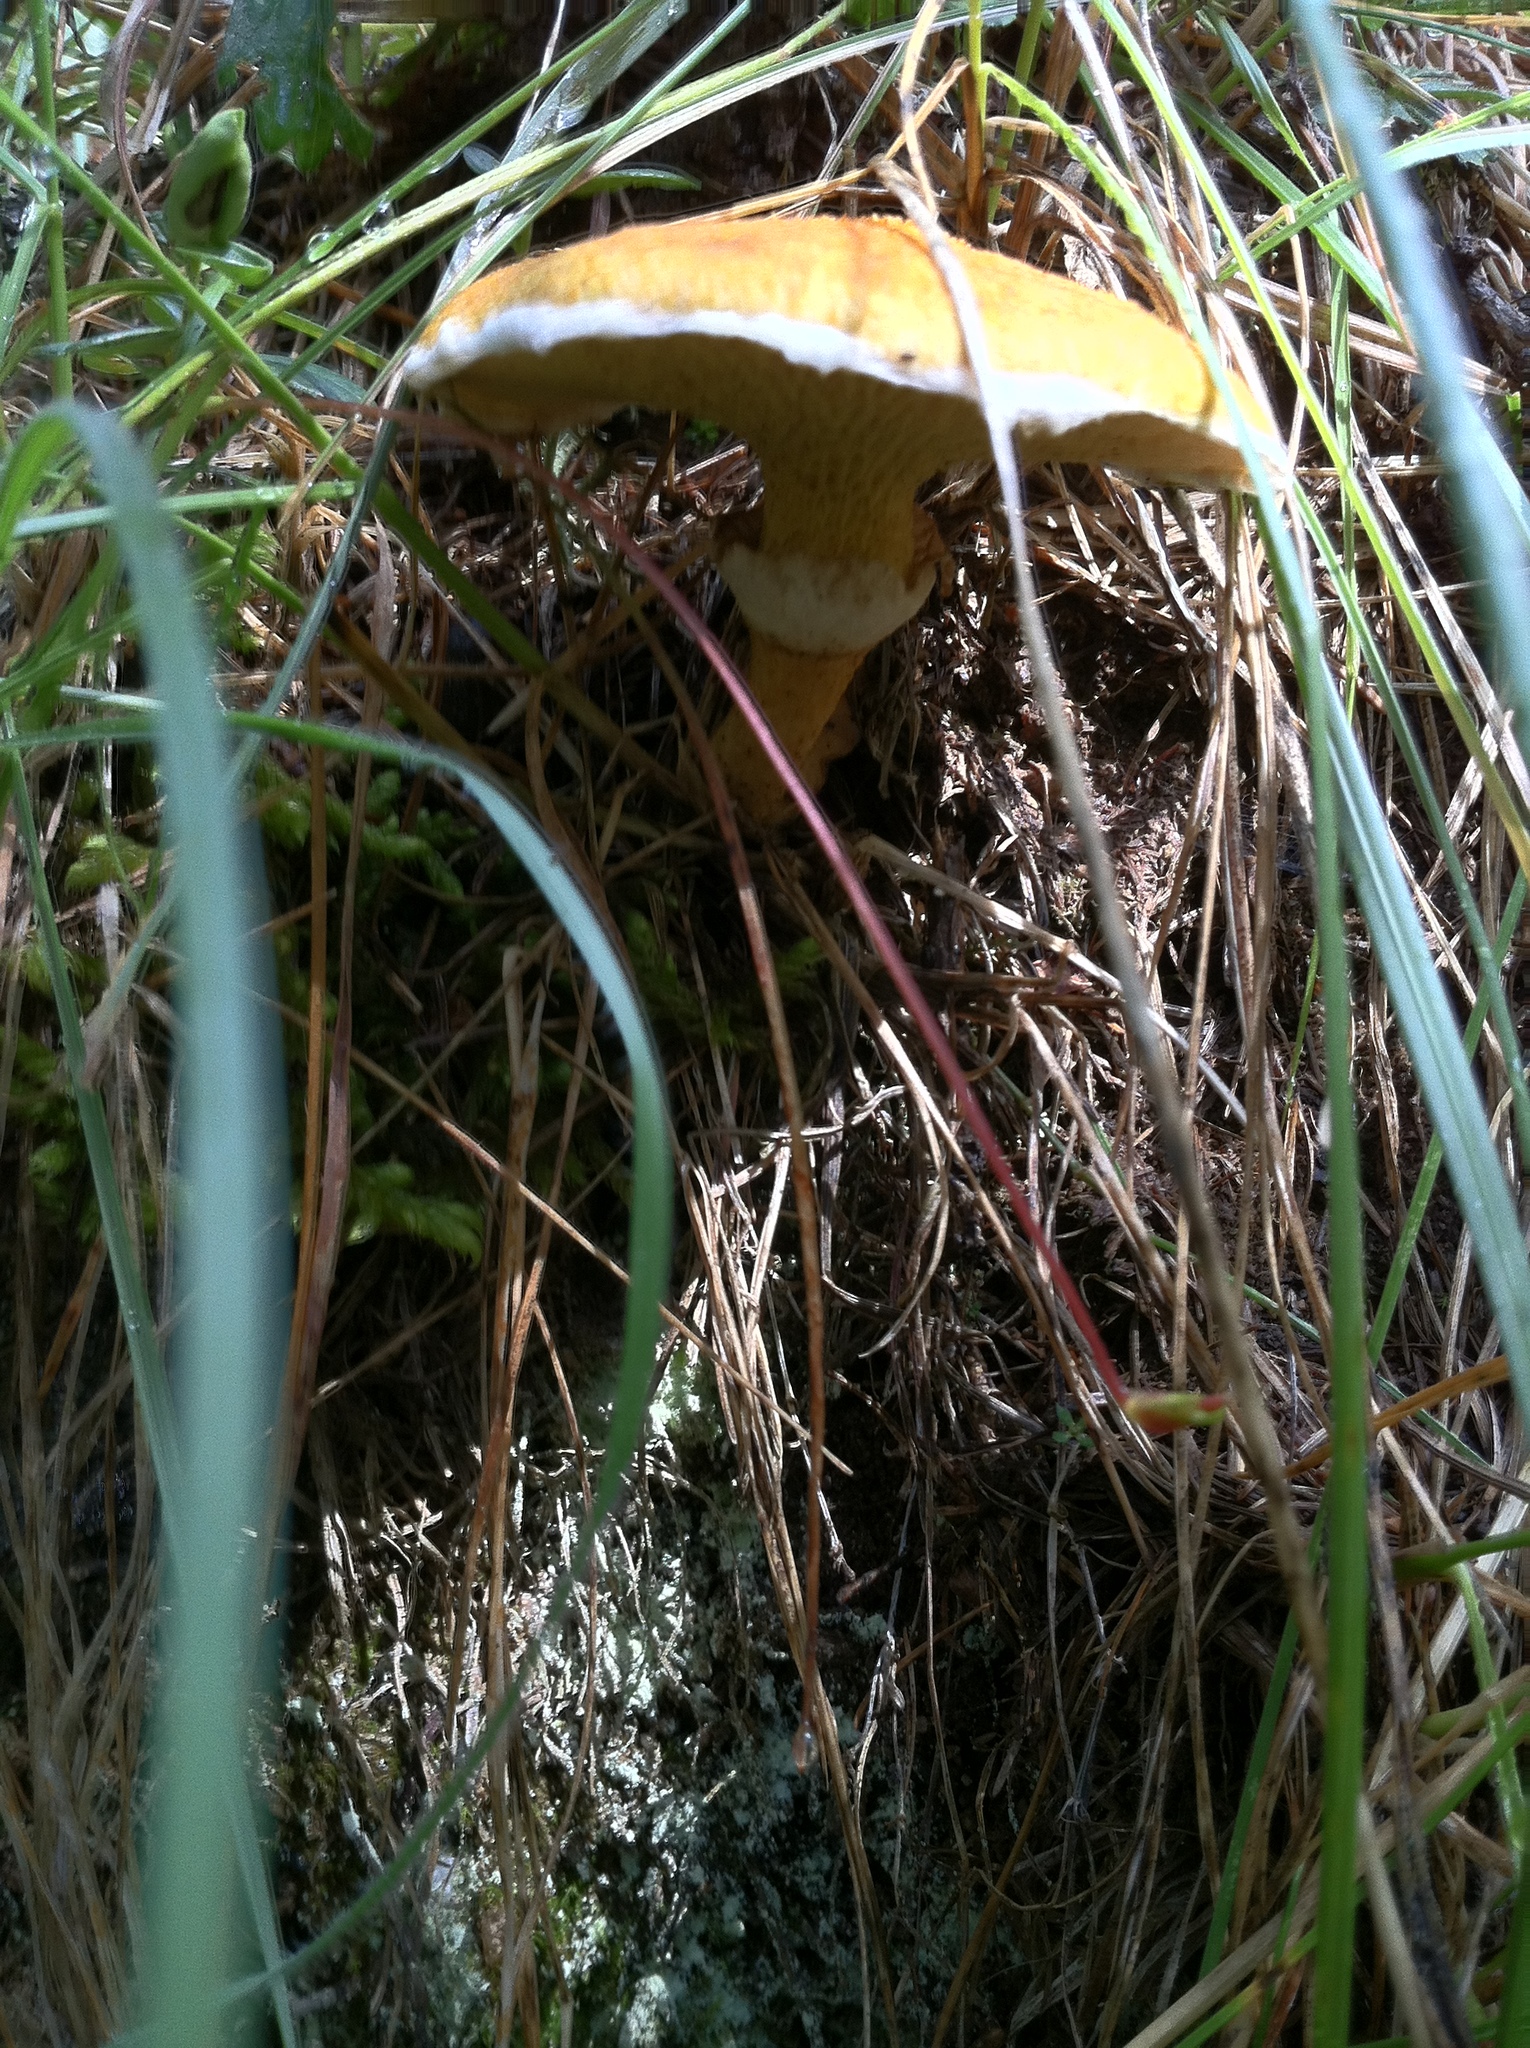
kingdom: Fungi
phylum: Basidiomycota
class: Agaricomycetes
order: Boletales
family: Suillaceae
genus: Suillus
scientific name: Suillus cavipes
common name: Hollow bolete
